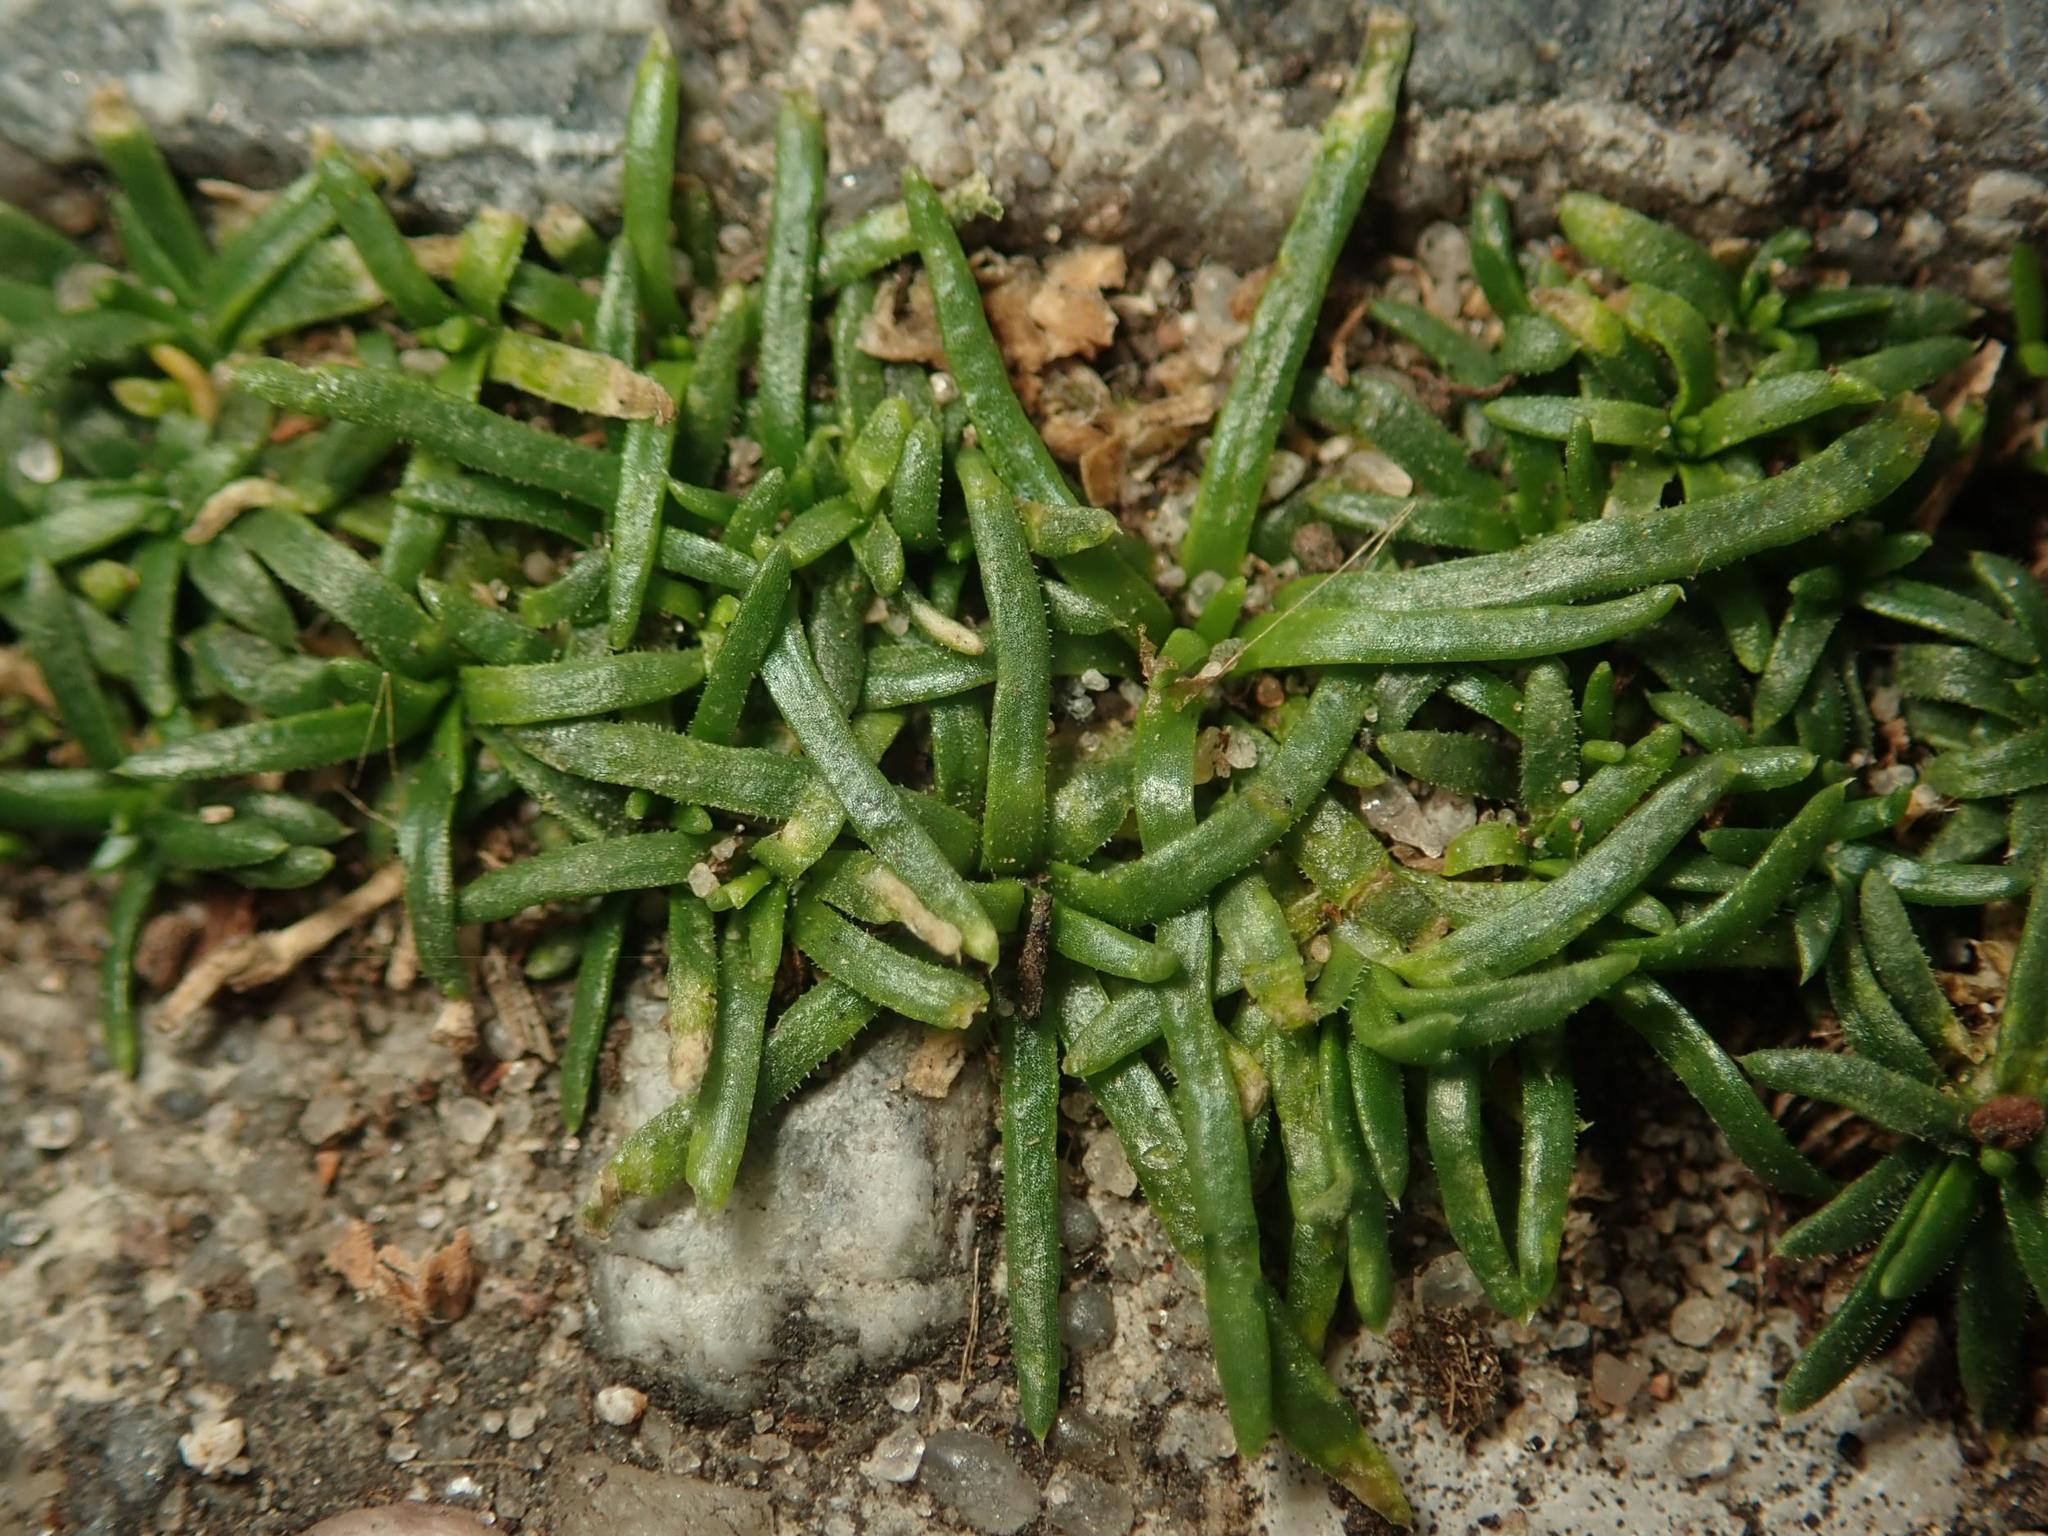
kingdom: Plantae
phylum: Tracheophyta
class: Magnoliopsida
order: Caryophyllales
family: Caryophyllaceae
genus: Sagina
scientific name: Sagina procumbens
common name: Procumbent pearlwort
